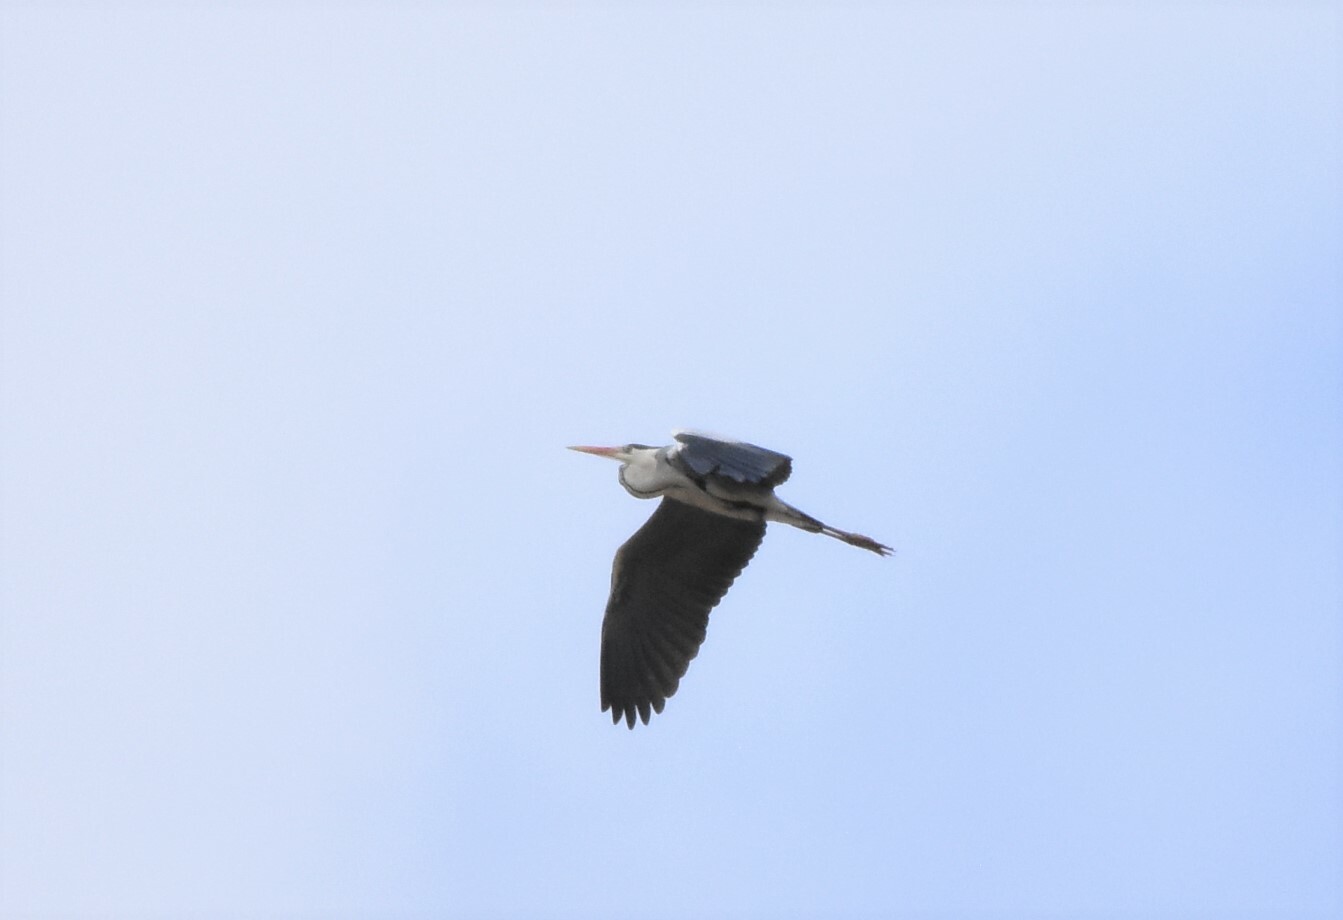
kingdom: Animalia
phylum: Chordata
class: Aves
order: Pelecaniformes
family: Ardeidae
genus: Ardea
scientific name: Ardea cinerea
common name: Grey heron
